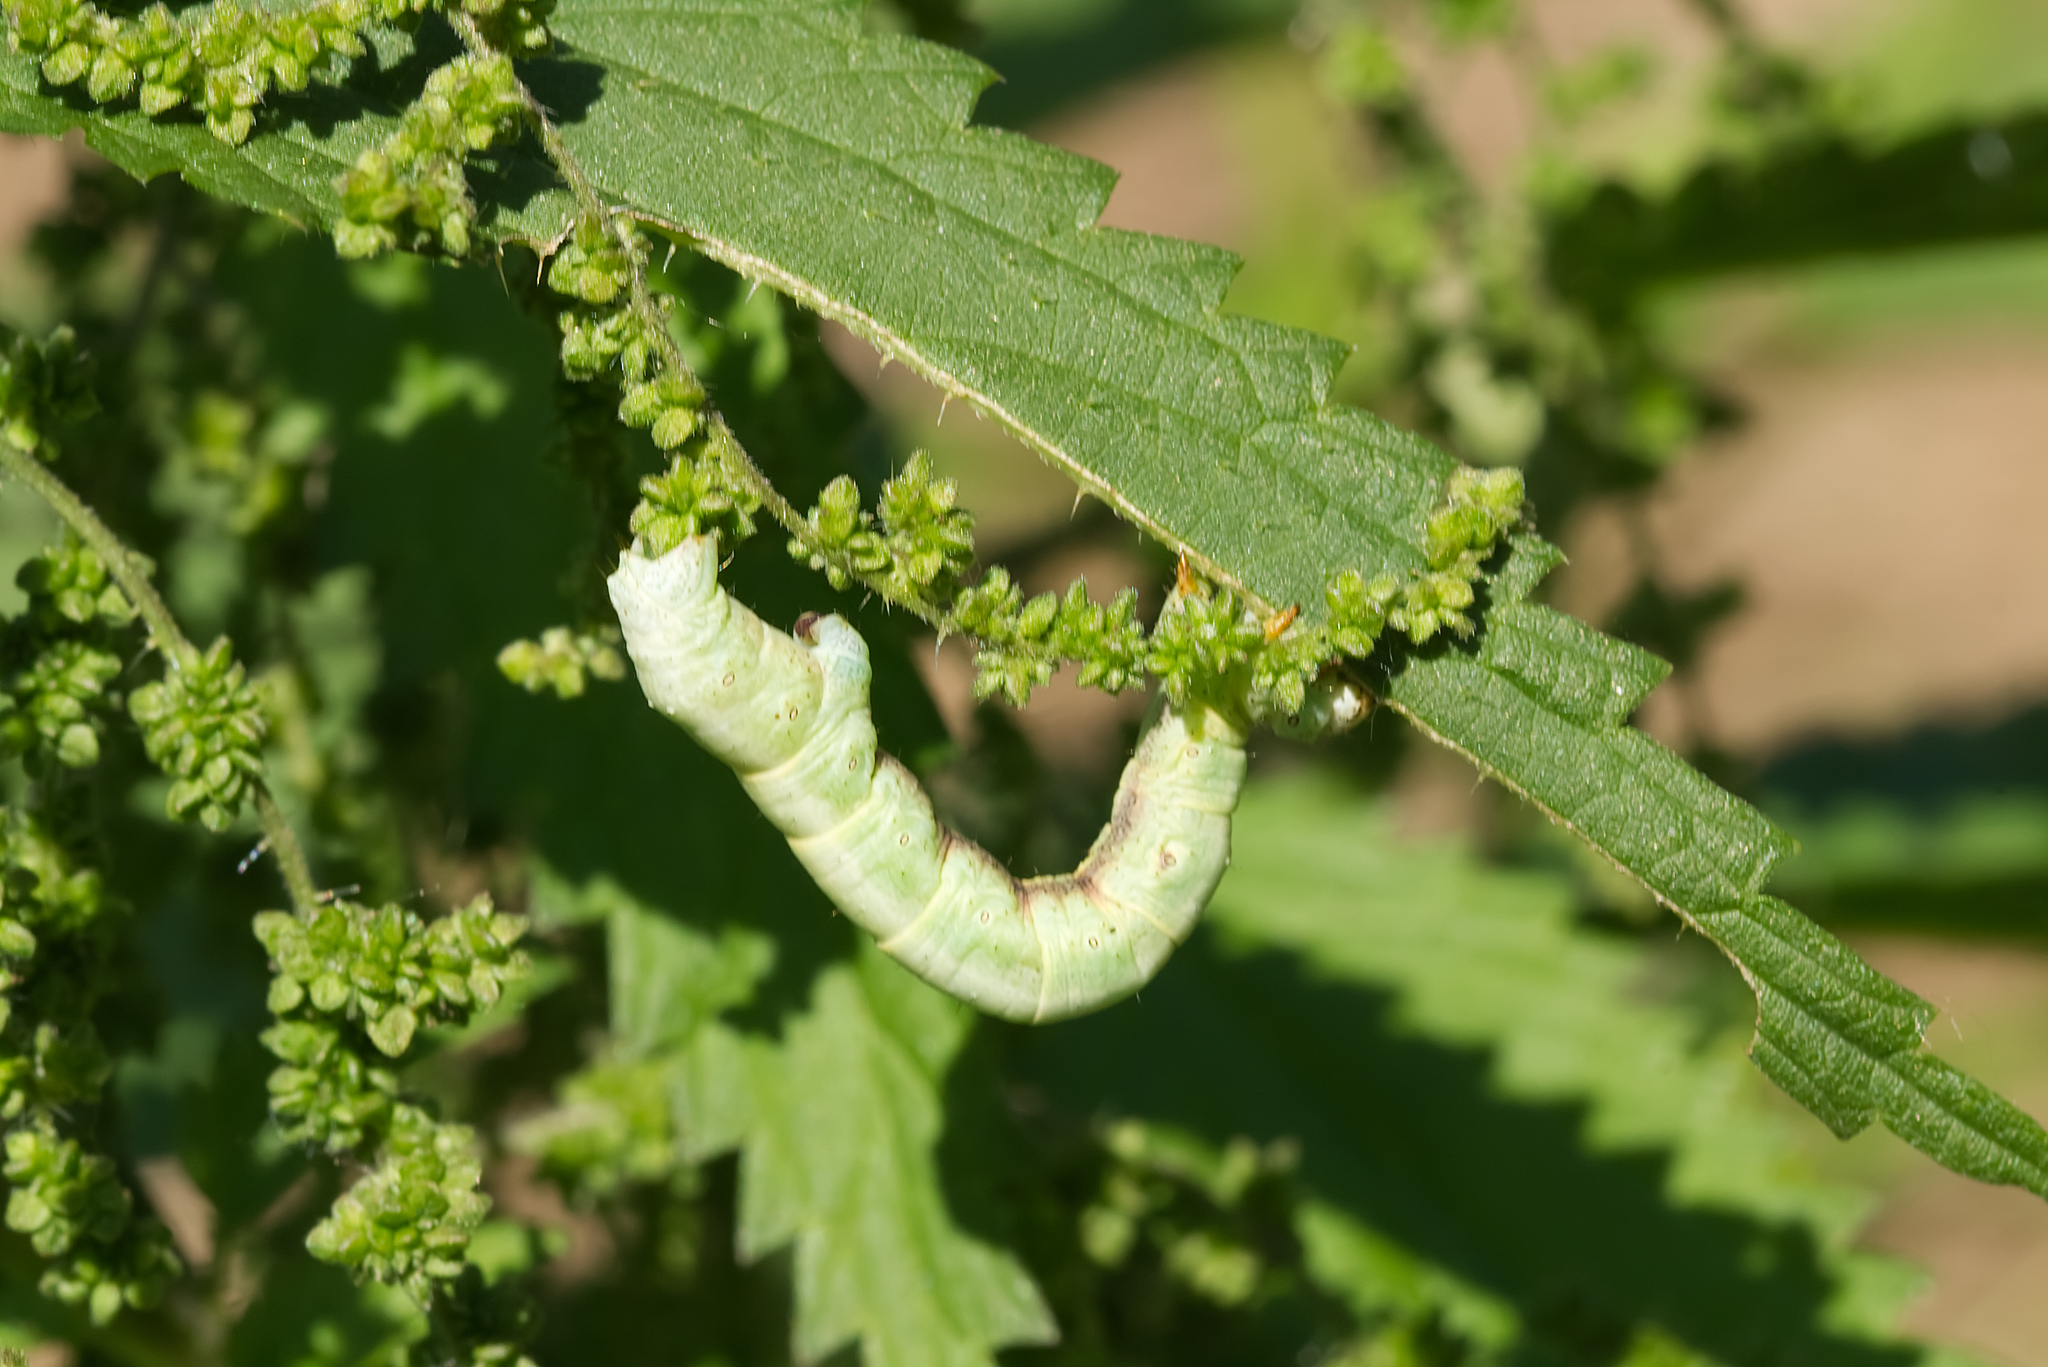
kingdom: Animalia
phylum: Arthropoda
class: Insecta
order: Lepidoptera
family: Geometridae
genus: Ascotis
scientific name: Ascotis selenaria
